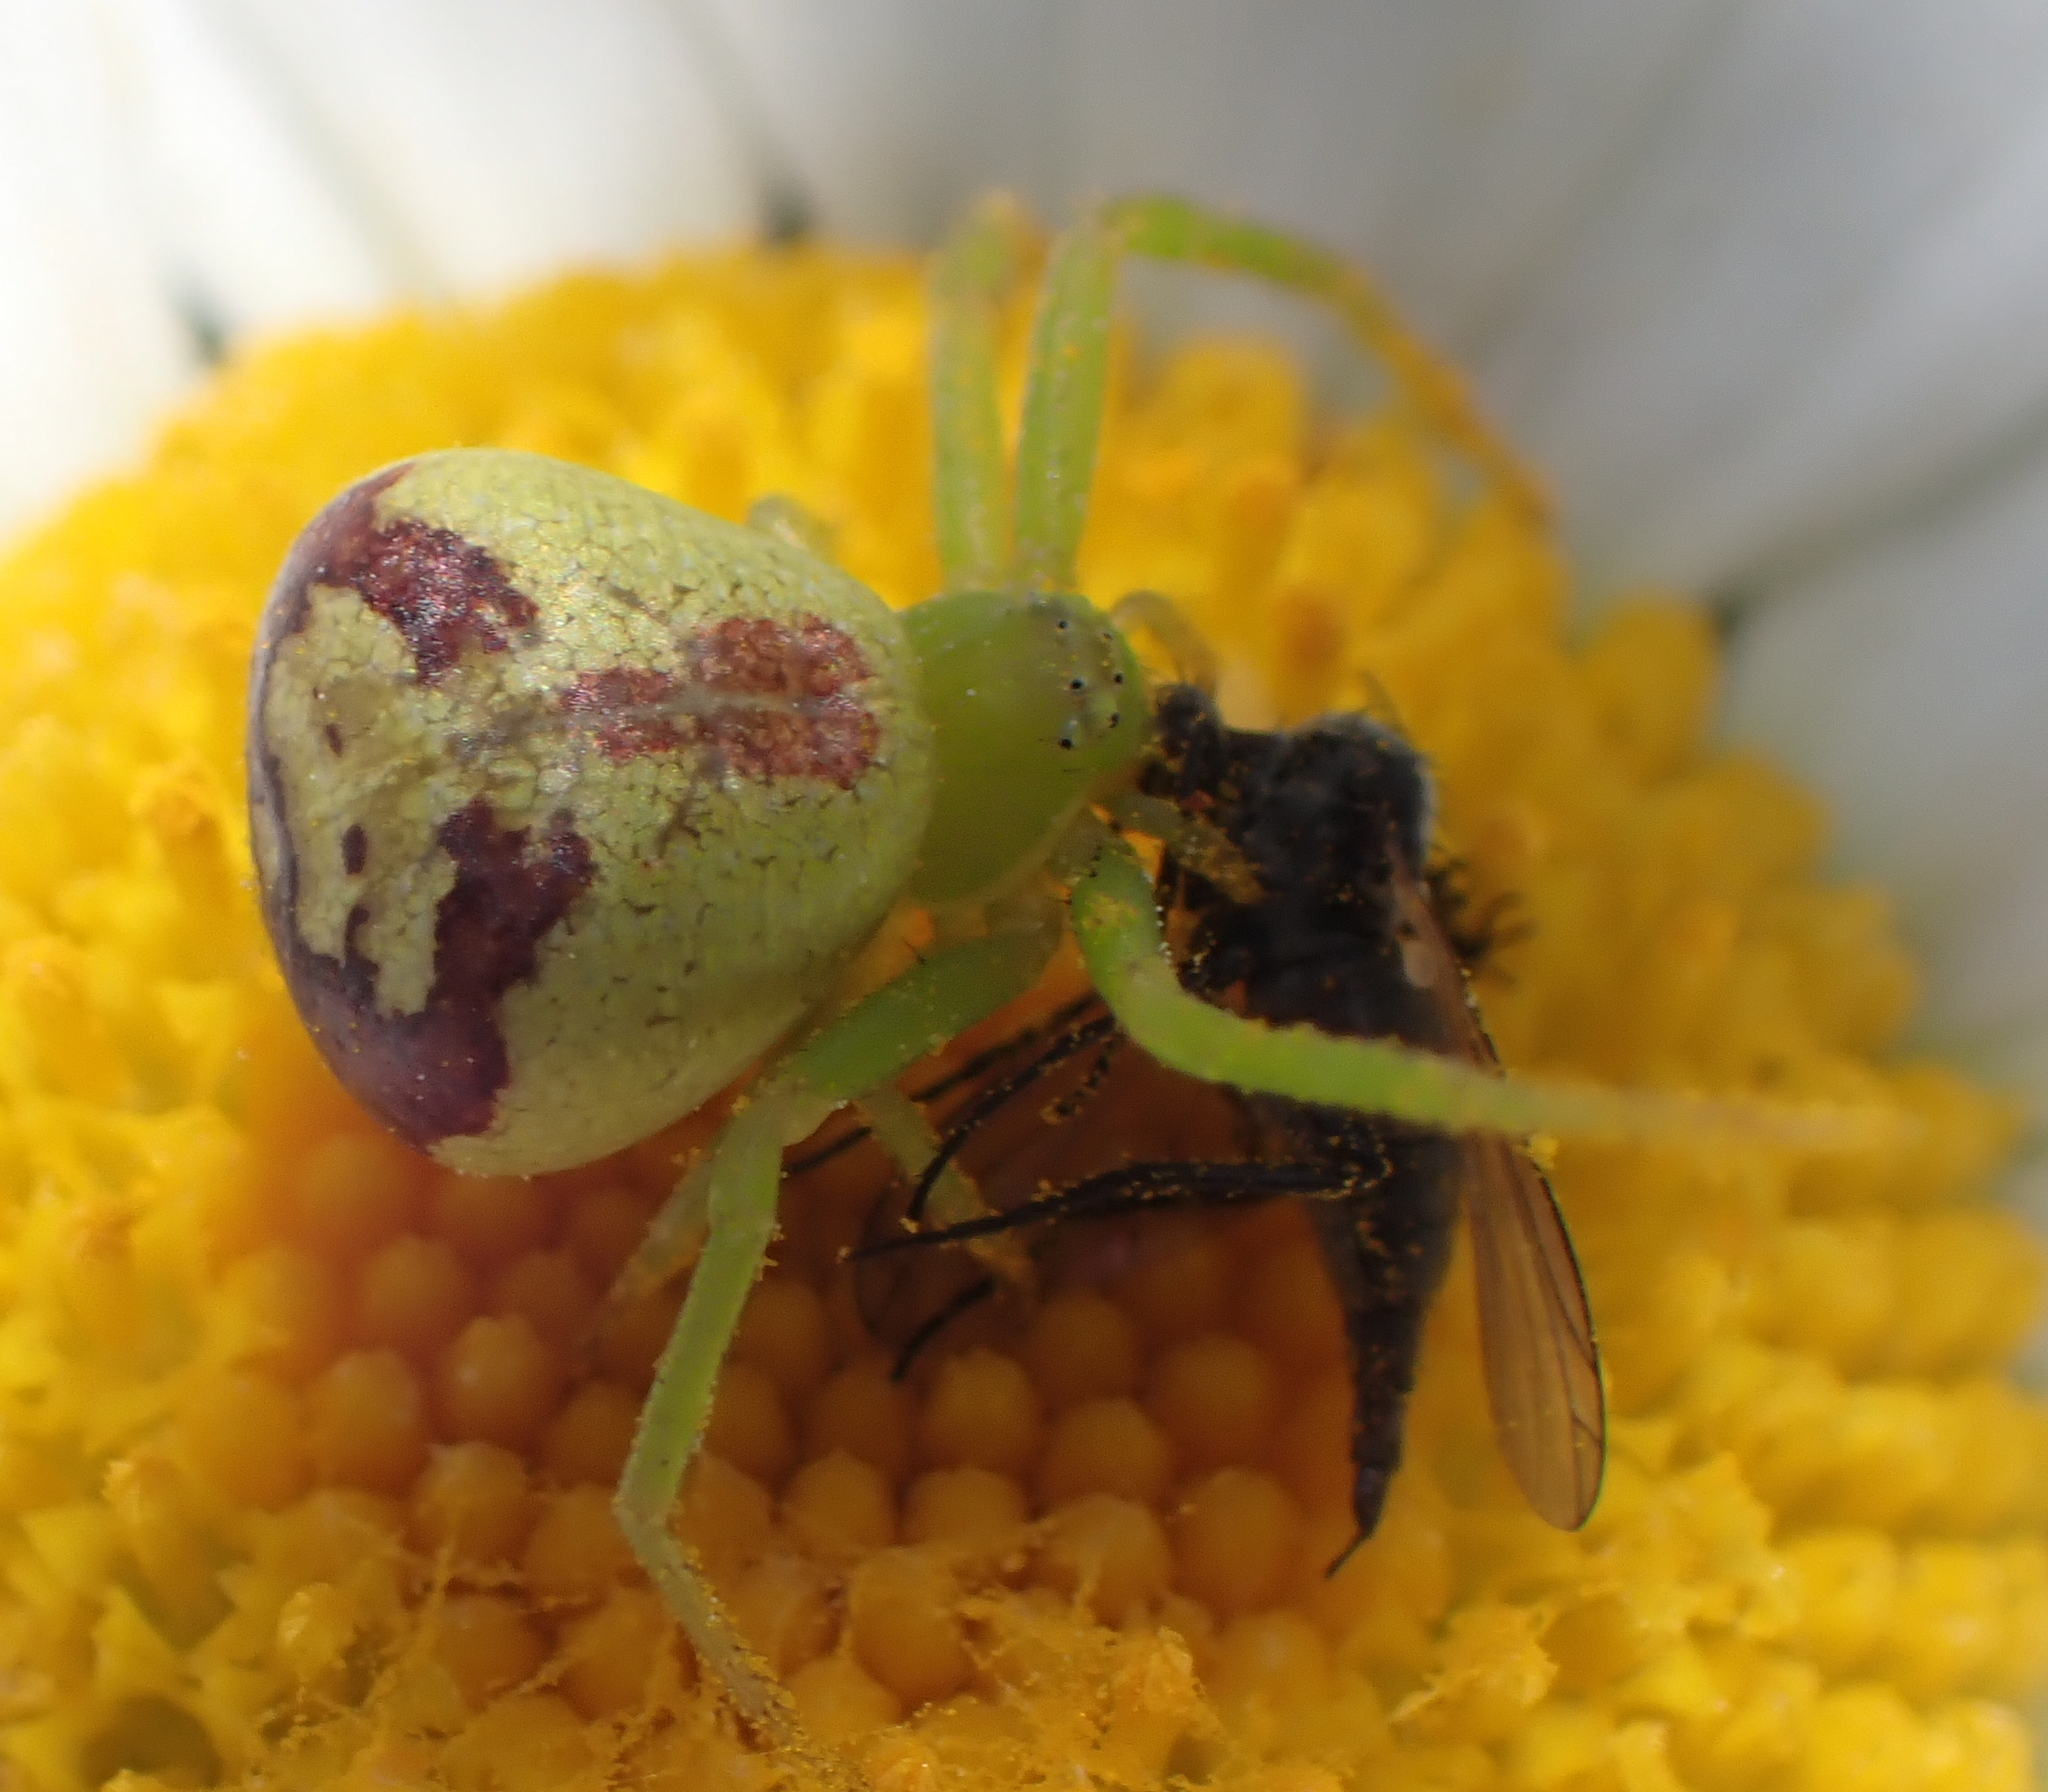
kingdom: Animalia
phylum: Arthropoda
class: Arachnida
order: Araneae
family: Thomisidae
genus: Ebrechtella
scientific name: Ebrechtella tricuspidata
